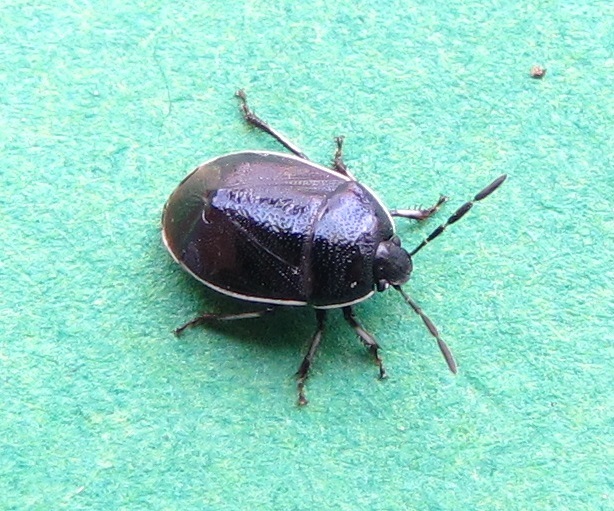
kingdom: Animalia
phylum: Arthropoda
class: Insecta
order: Hemiptera
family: Cydnidae
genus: Sehirus
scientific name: Sehirus cinctus
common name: White-margined burrower bug
